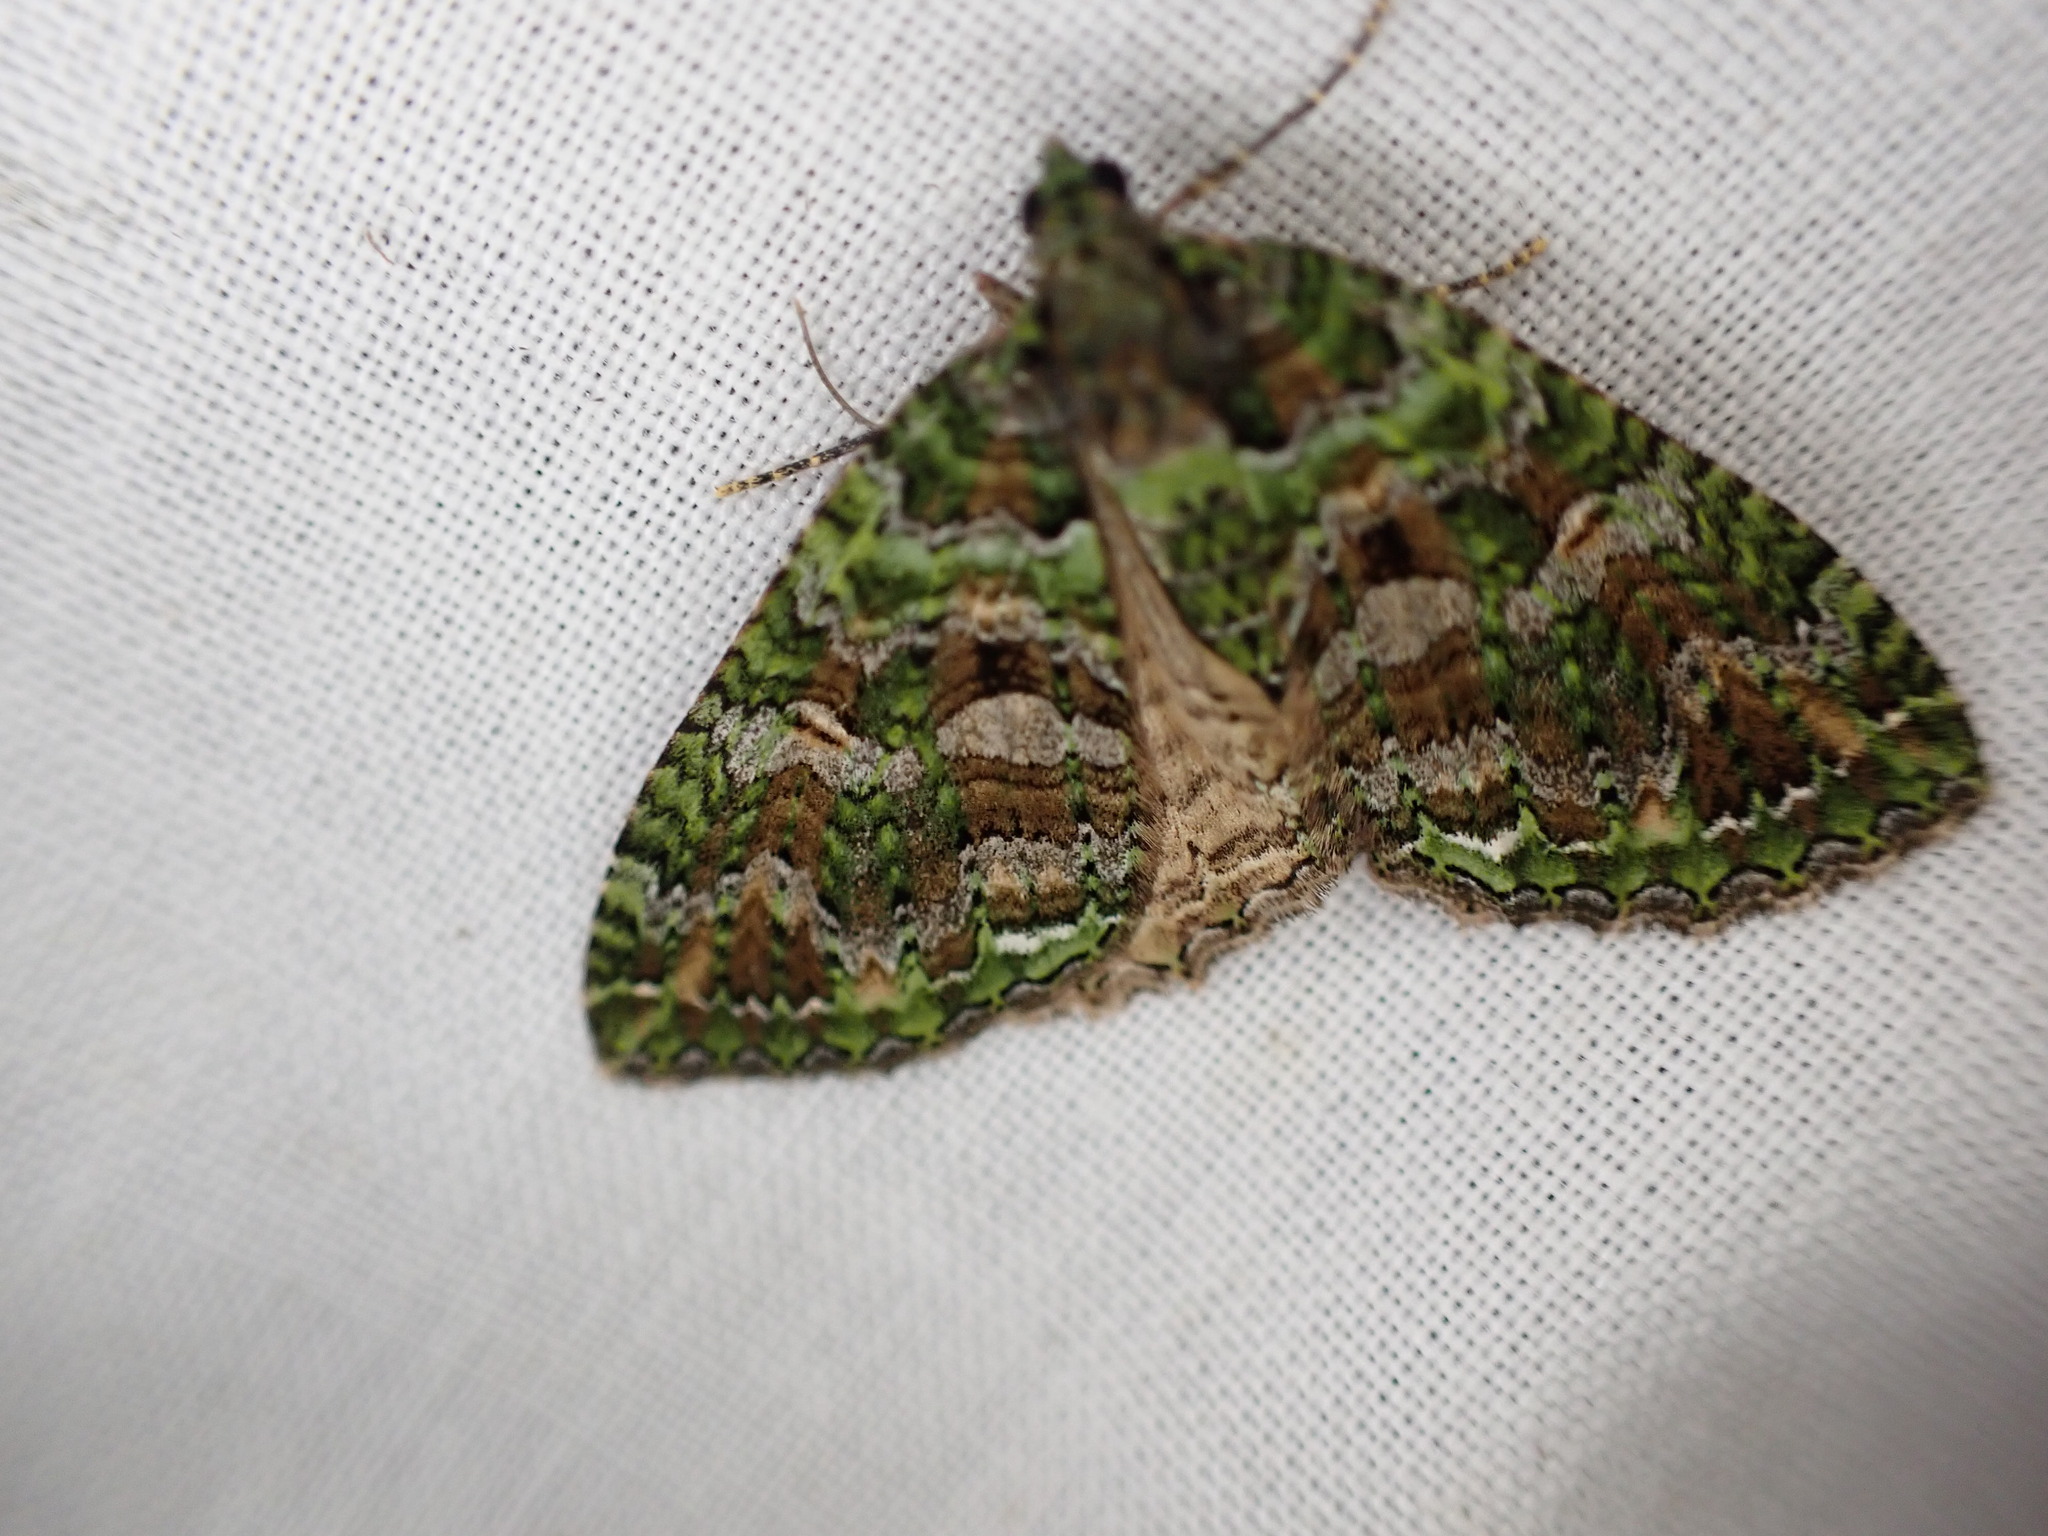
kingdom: Animalia
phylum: Arthropoda
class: Insecta
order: Lepidoptera
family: Geometridae
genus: Austrocidaria
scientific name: Austrocidaria similata
